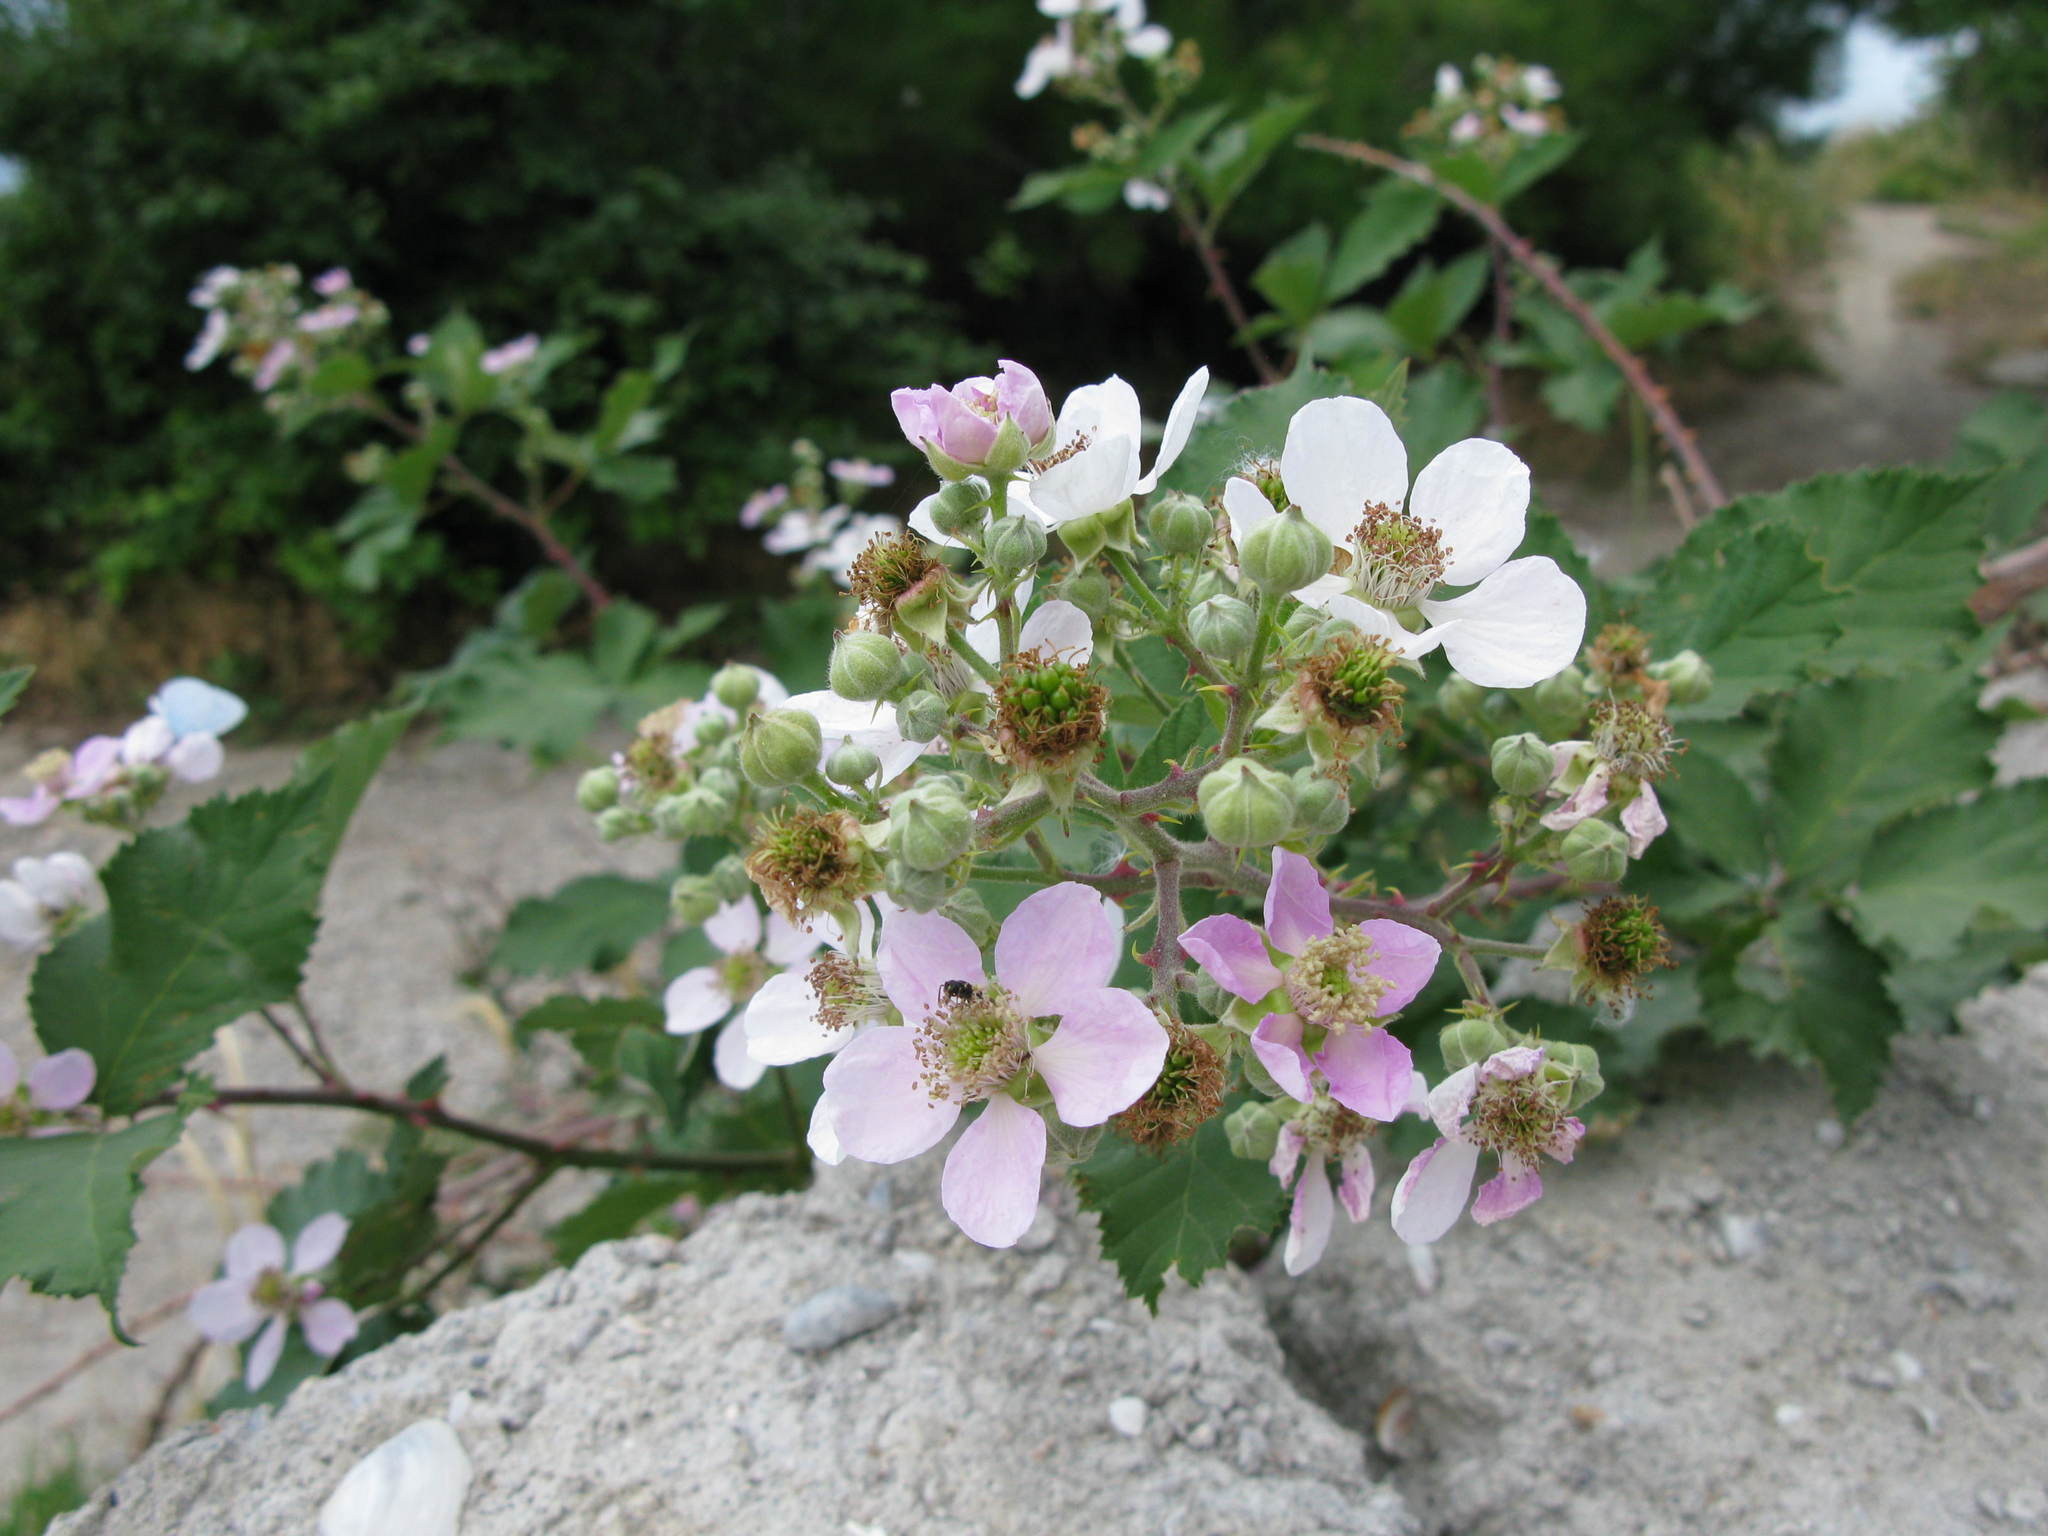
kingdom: Plantae
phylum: Tracheophyta
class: Magnoliopsida
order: Rosales
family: Rosaceae
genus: Rubus
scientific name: Rubus ulmifolius
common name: Elmleaf blackberry
